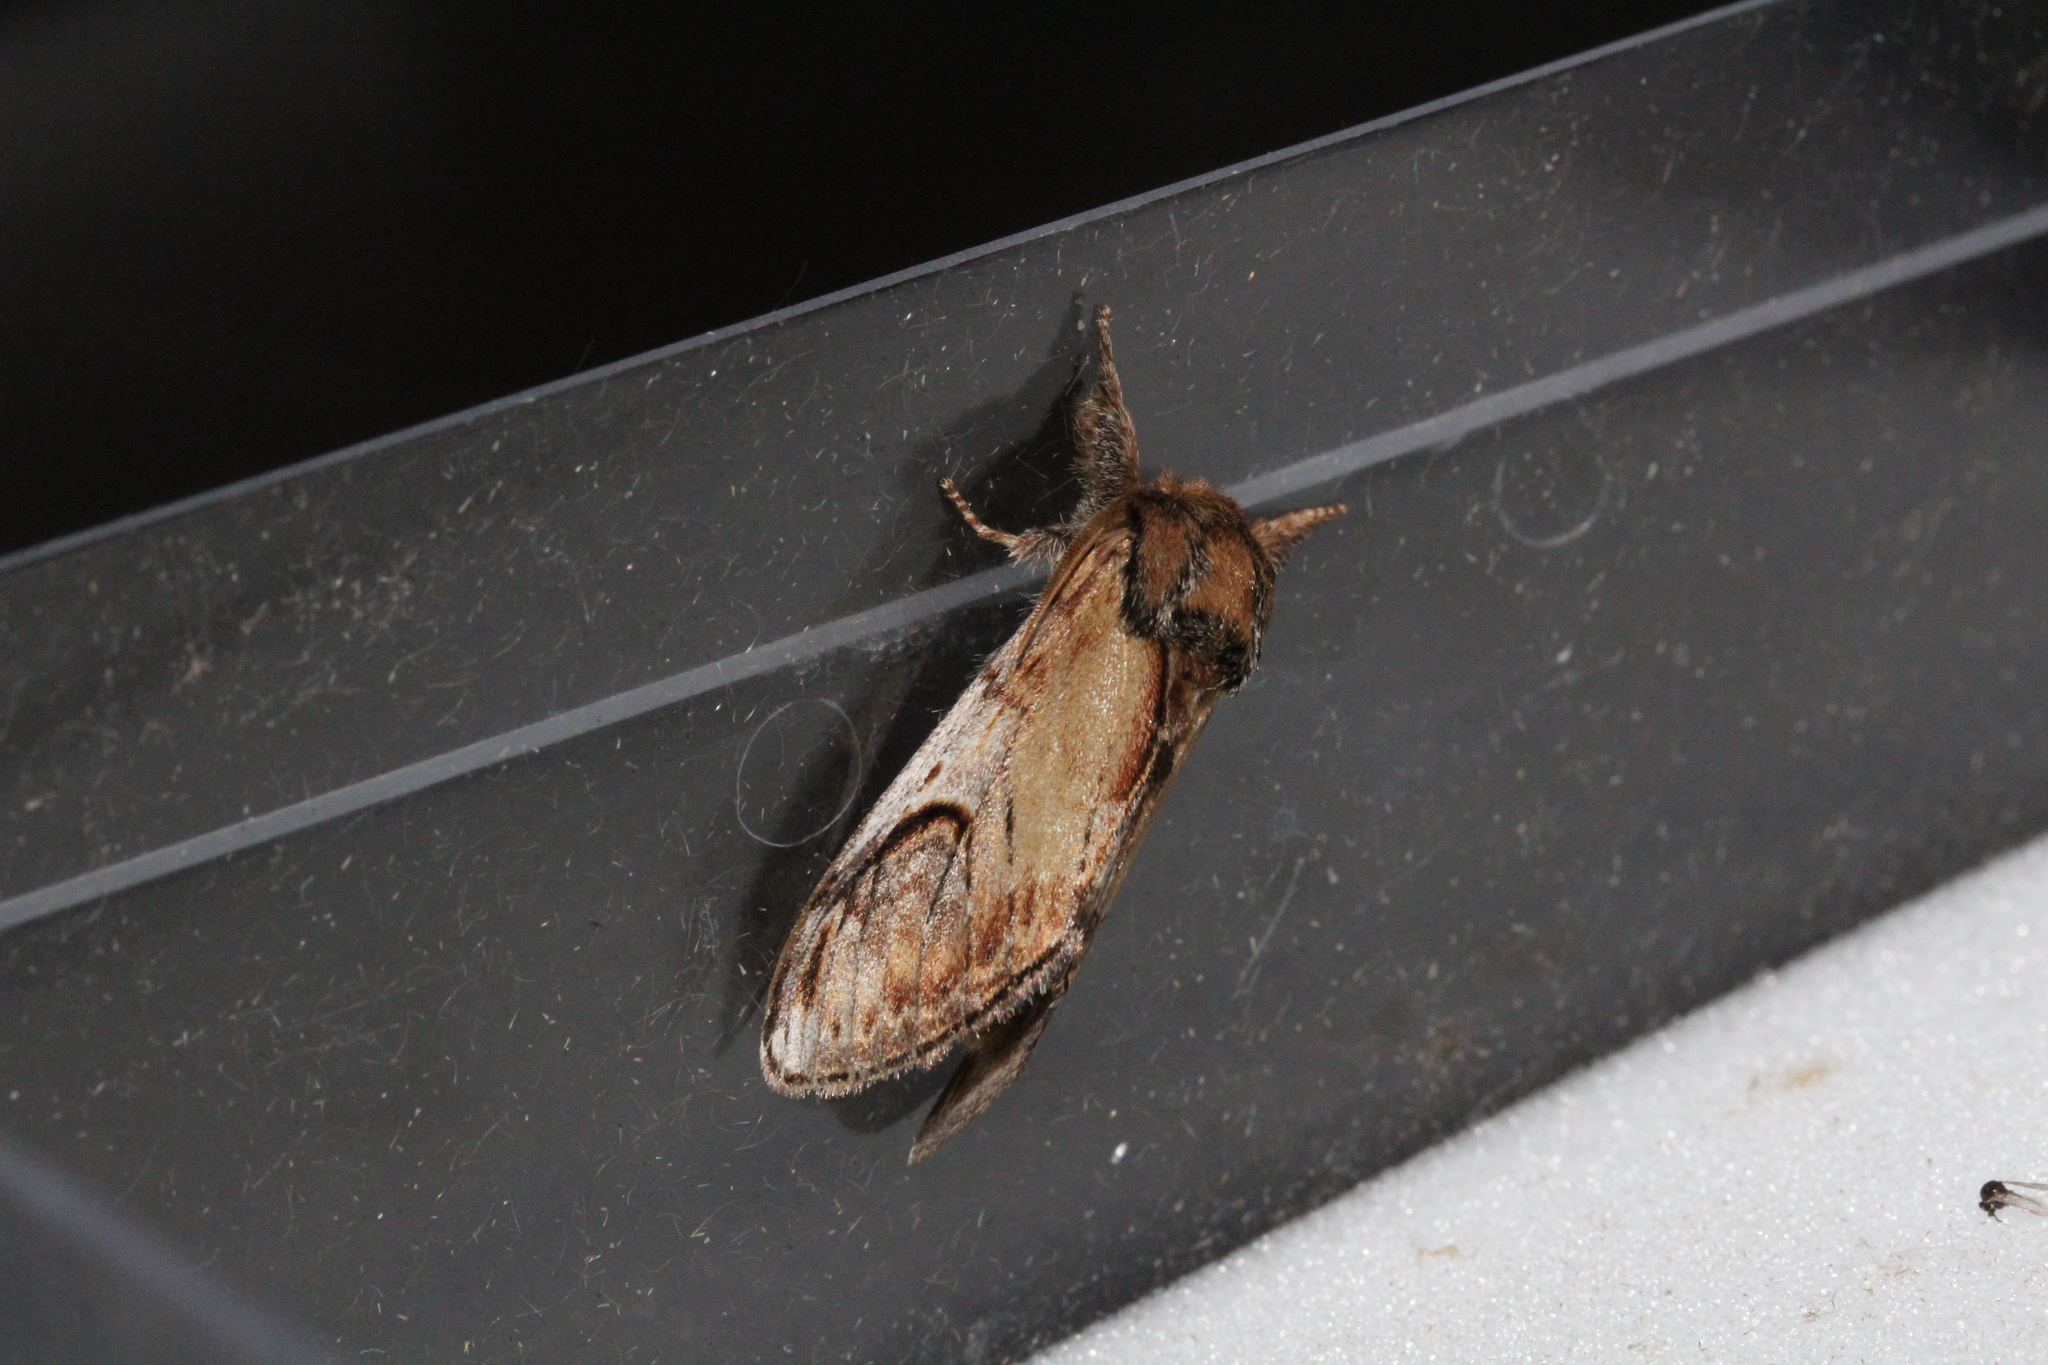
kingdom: Animalia
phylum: Arthropoda
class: Insecta
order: Lepidoptera
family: Notodontidae
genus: Notodonta
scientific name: Notodonta ziczac
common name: Pebble prominent
